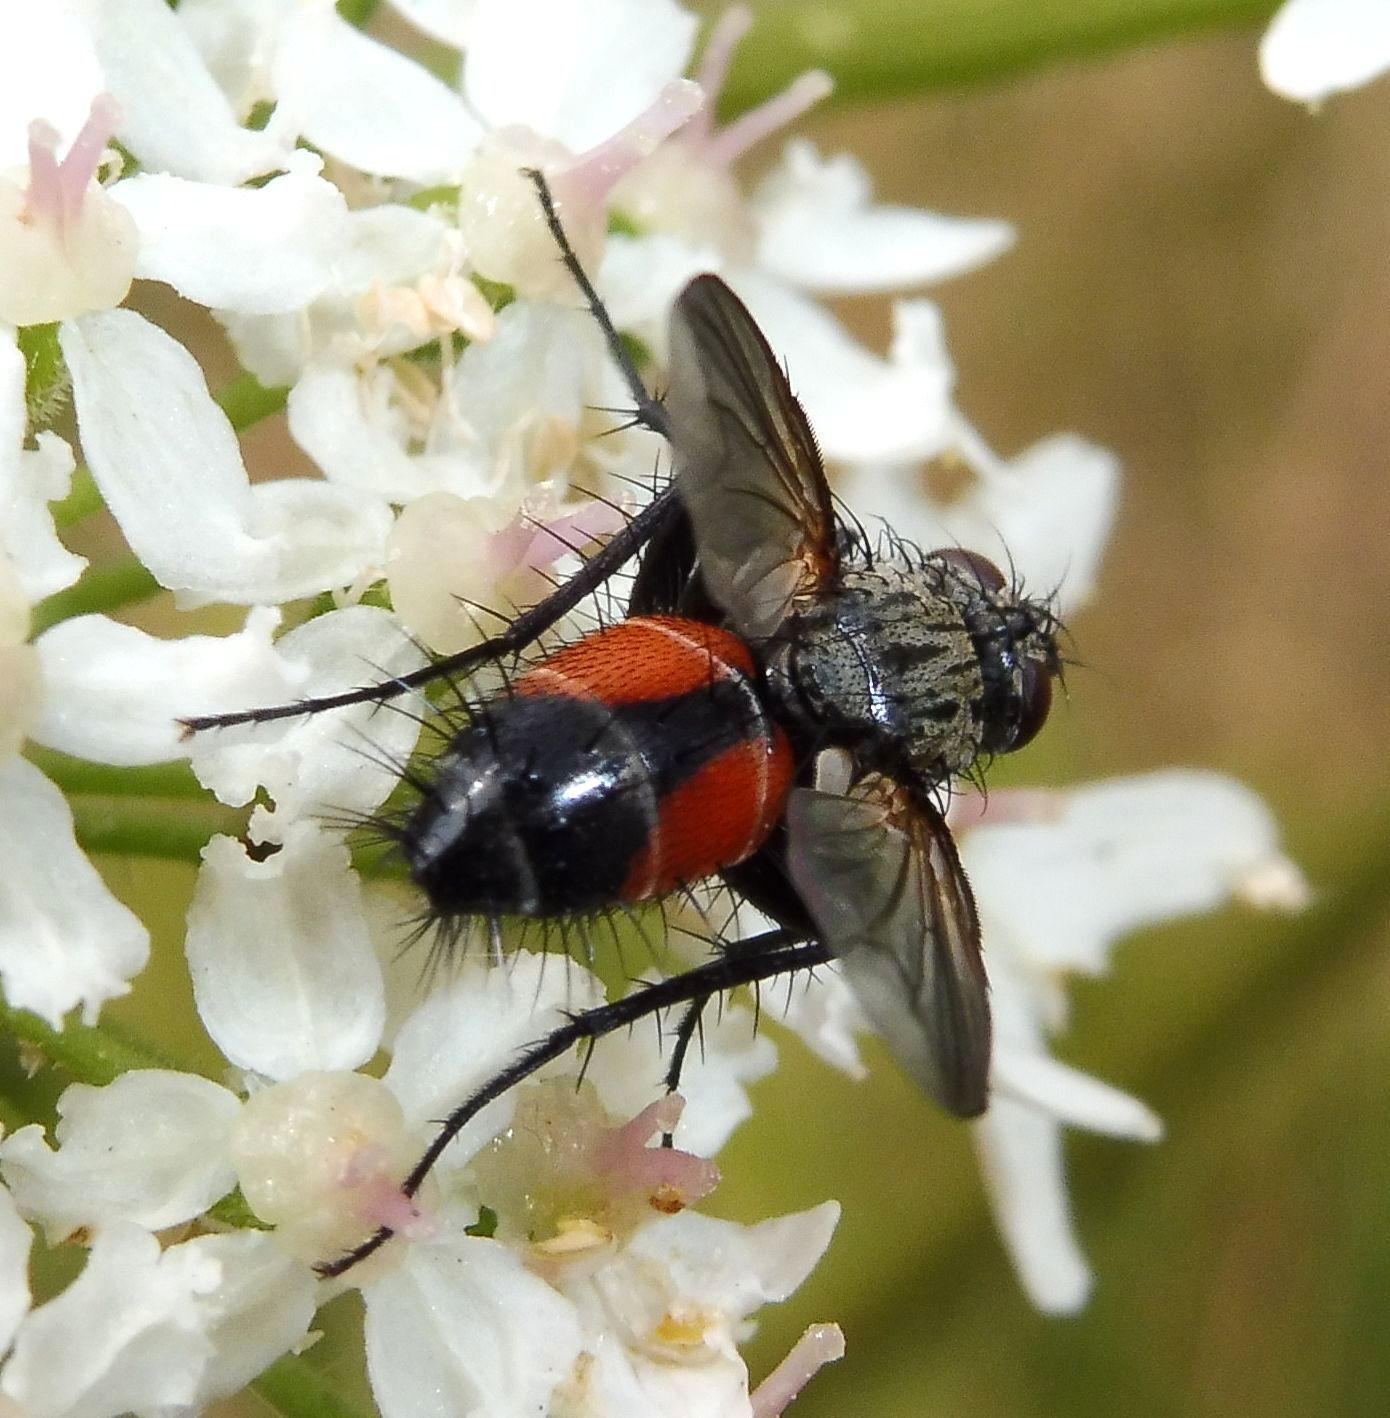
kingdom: Animalia
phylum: Arthropoda
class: Insecta
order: Diptera
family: Tachinidae
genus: Eriothrix
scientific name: Eriothrix rufomaculatus
